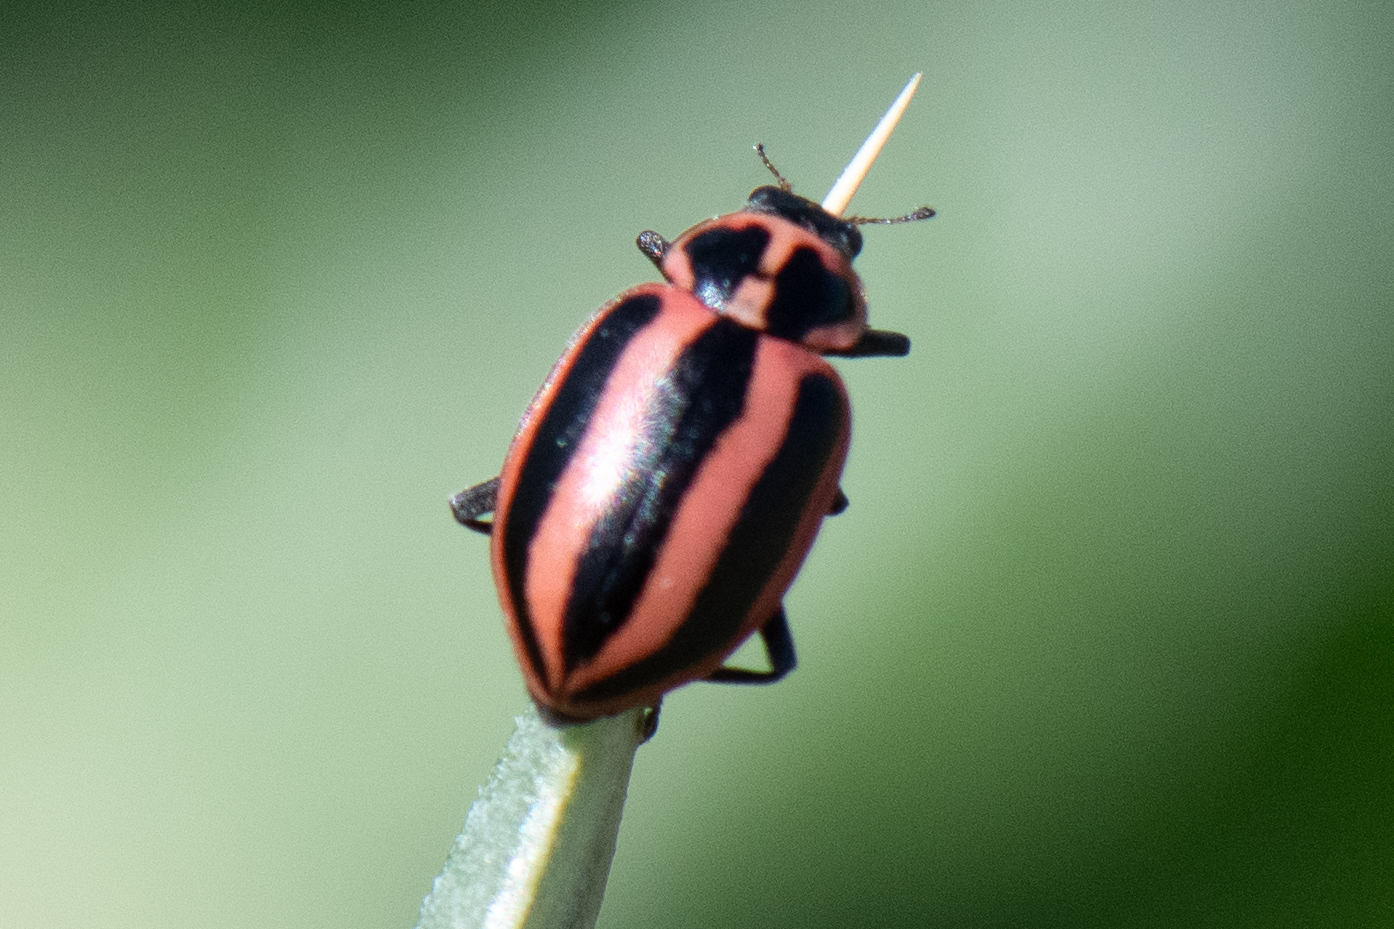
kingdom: Animalia
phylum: Arthropoda
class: Insecta
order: Coleoptera
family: Coccinellidae
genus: Paranaemia
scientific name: Paranaemia vittigera
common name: Ladybird beetle
